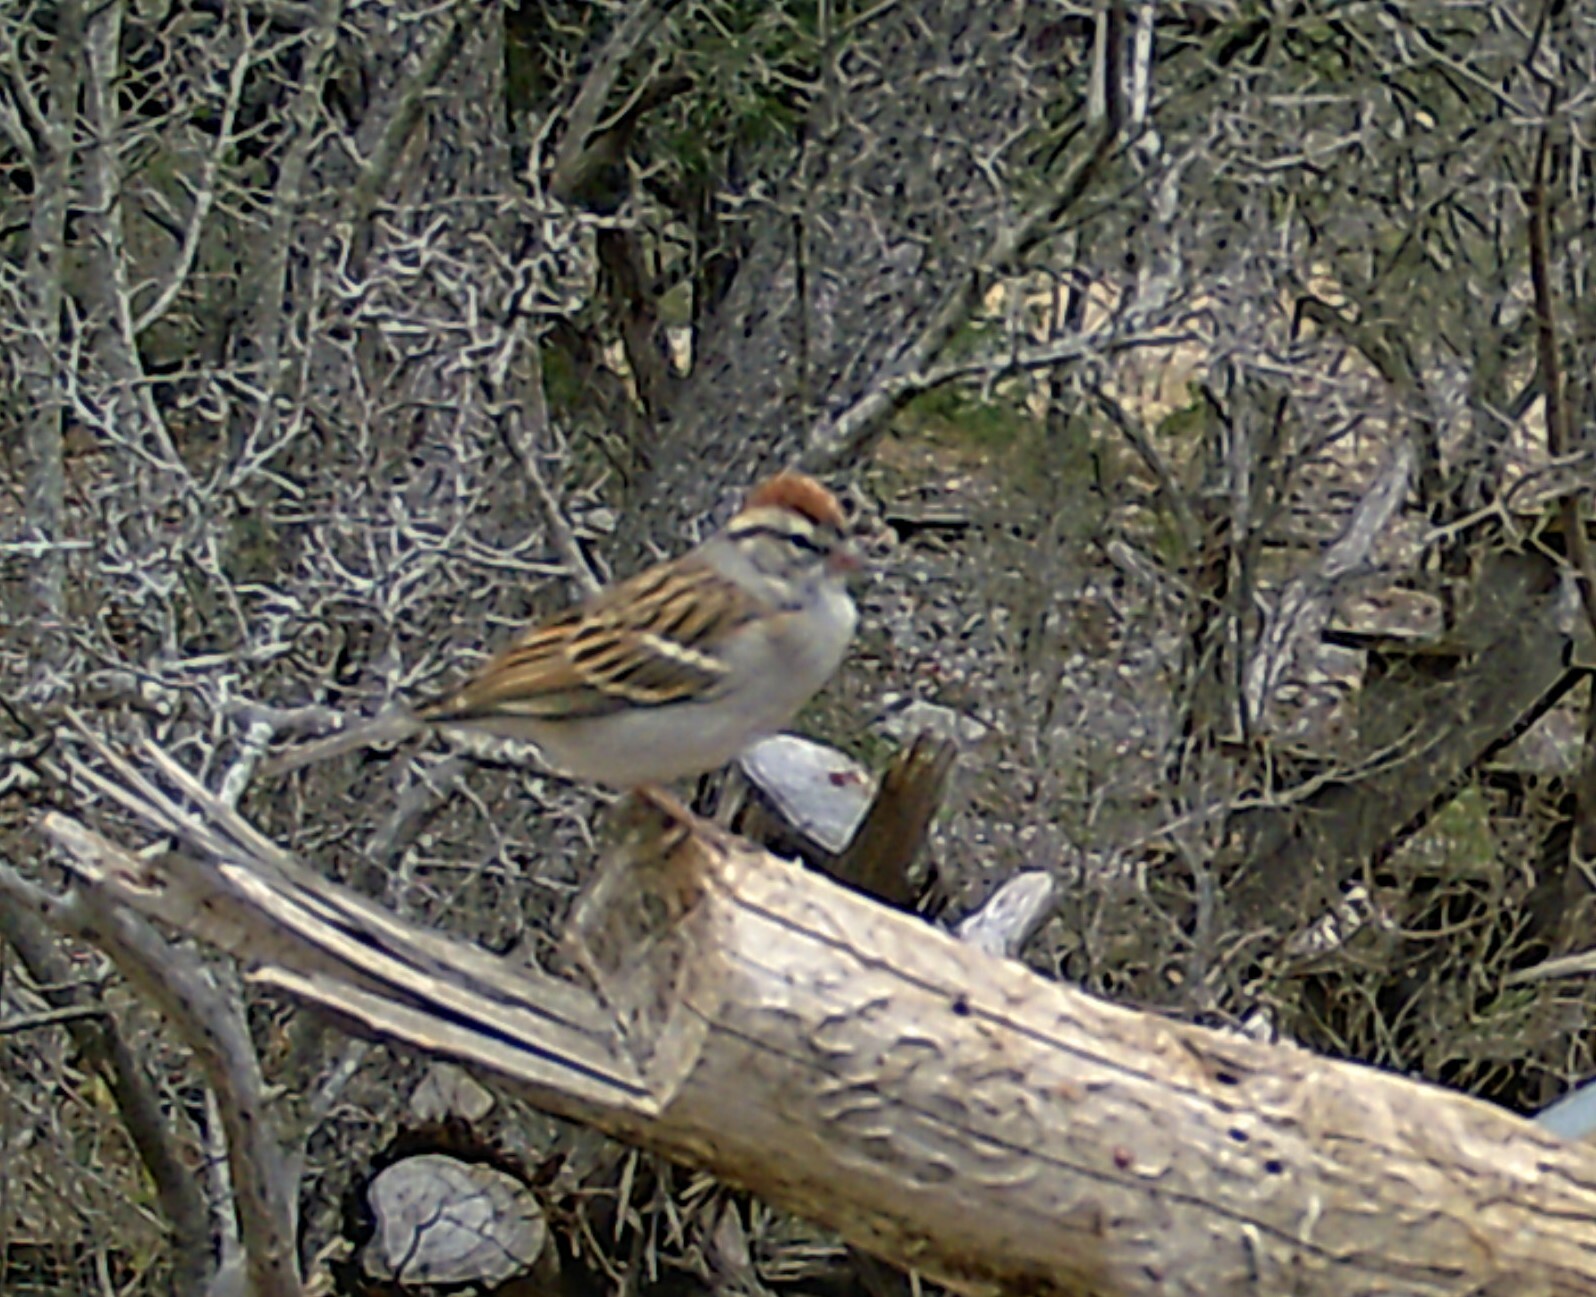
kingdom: Animalia
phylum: Chordata
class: Aves
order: Passeriformes
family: Passerellidae
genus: Spizella
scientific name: Spizella passerina
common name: Chipping sparrow
